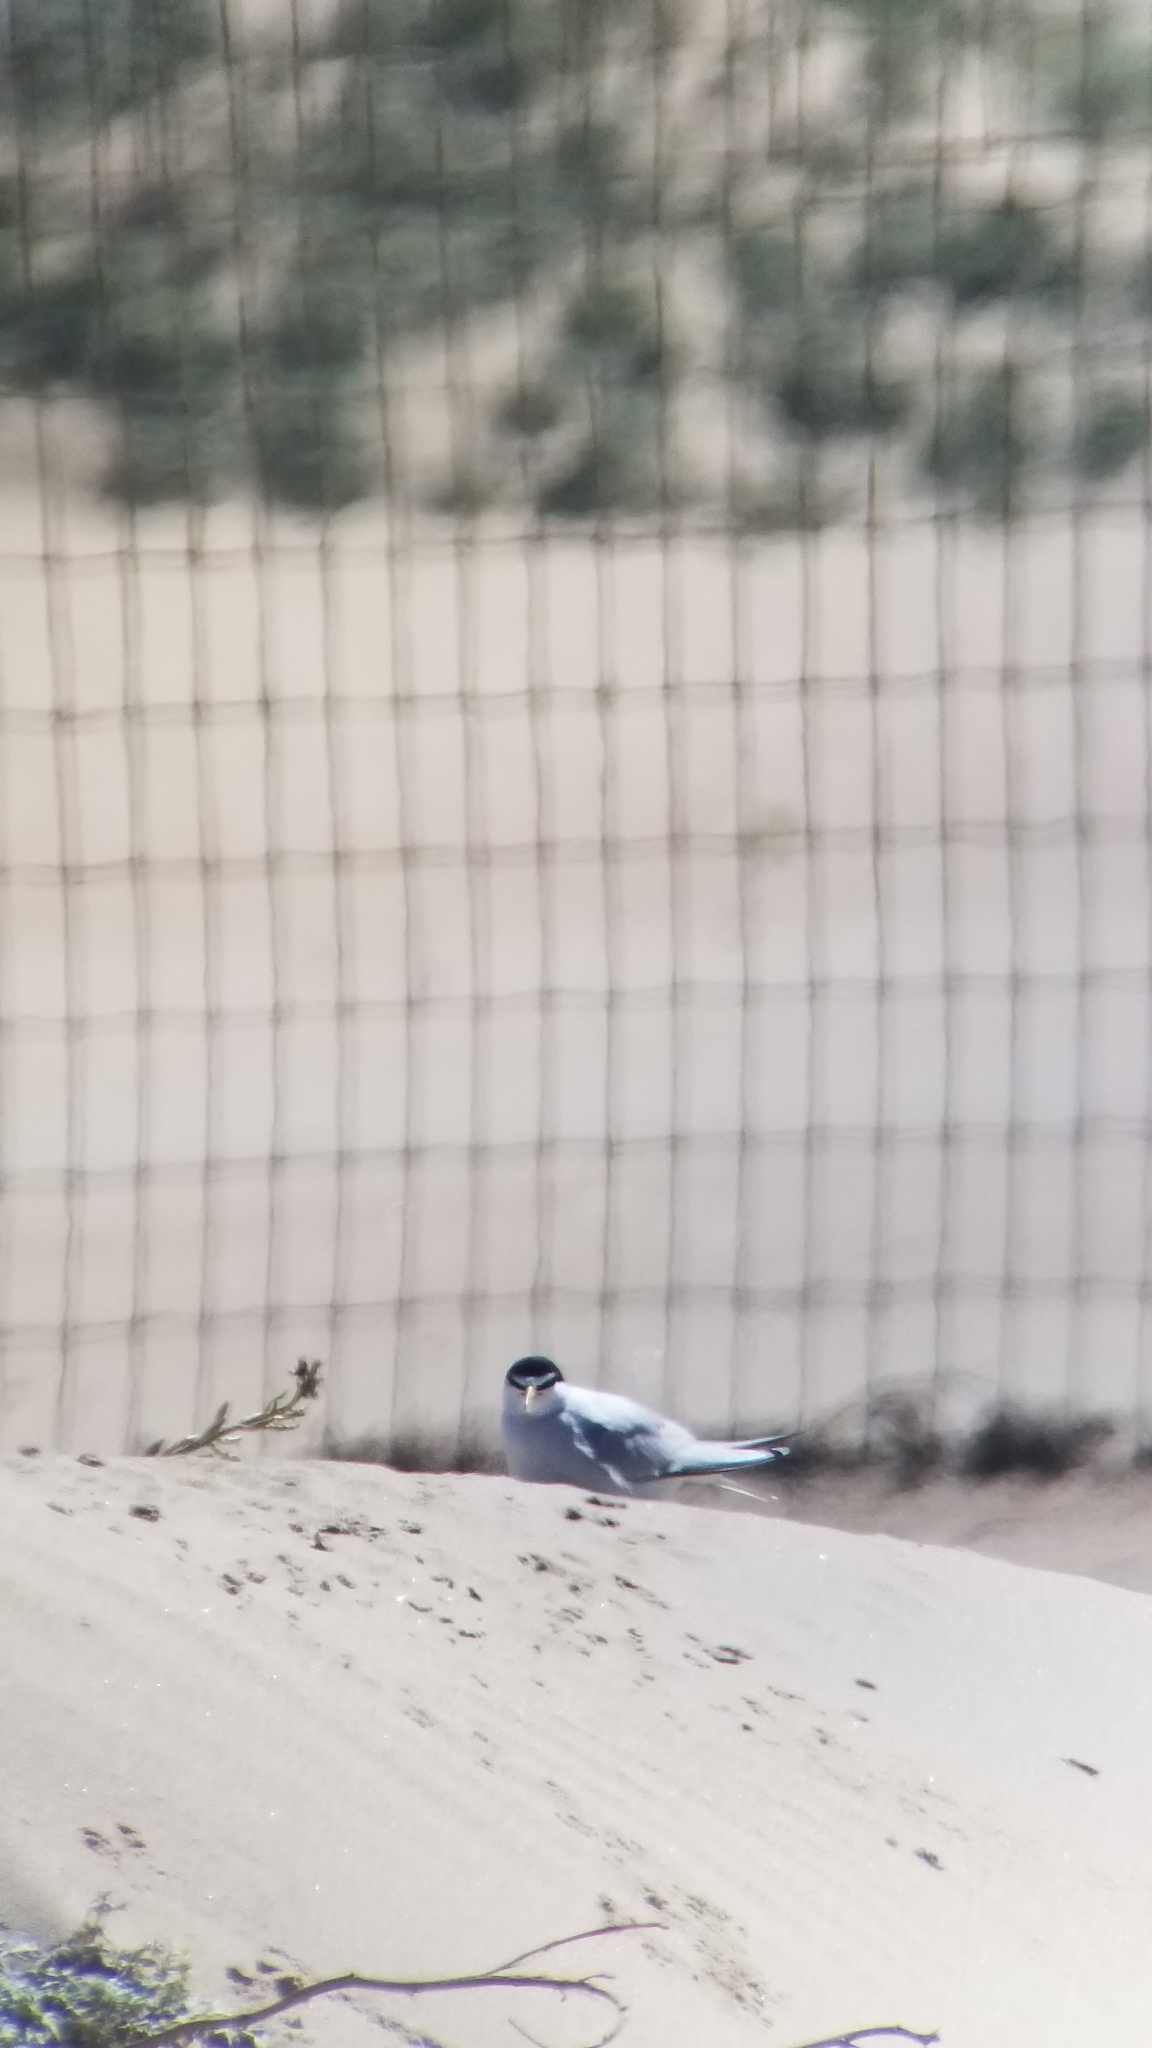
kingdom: Animalia
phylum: Chordata
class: Aves
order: Charadriiformes
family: Laridae
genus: Sternula
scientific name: Sternula antillarum
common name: Least tern
